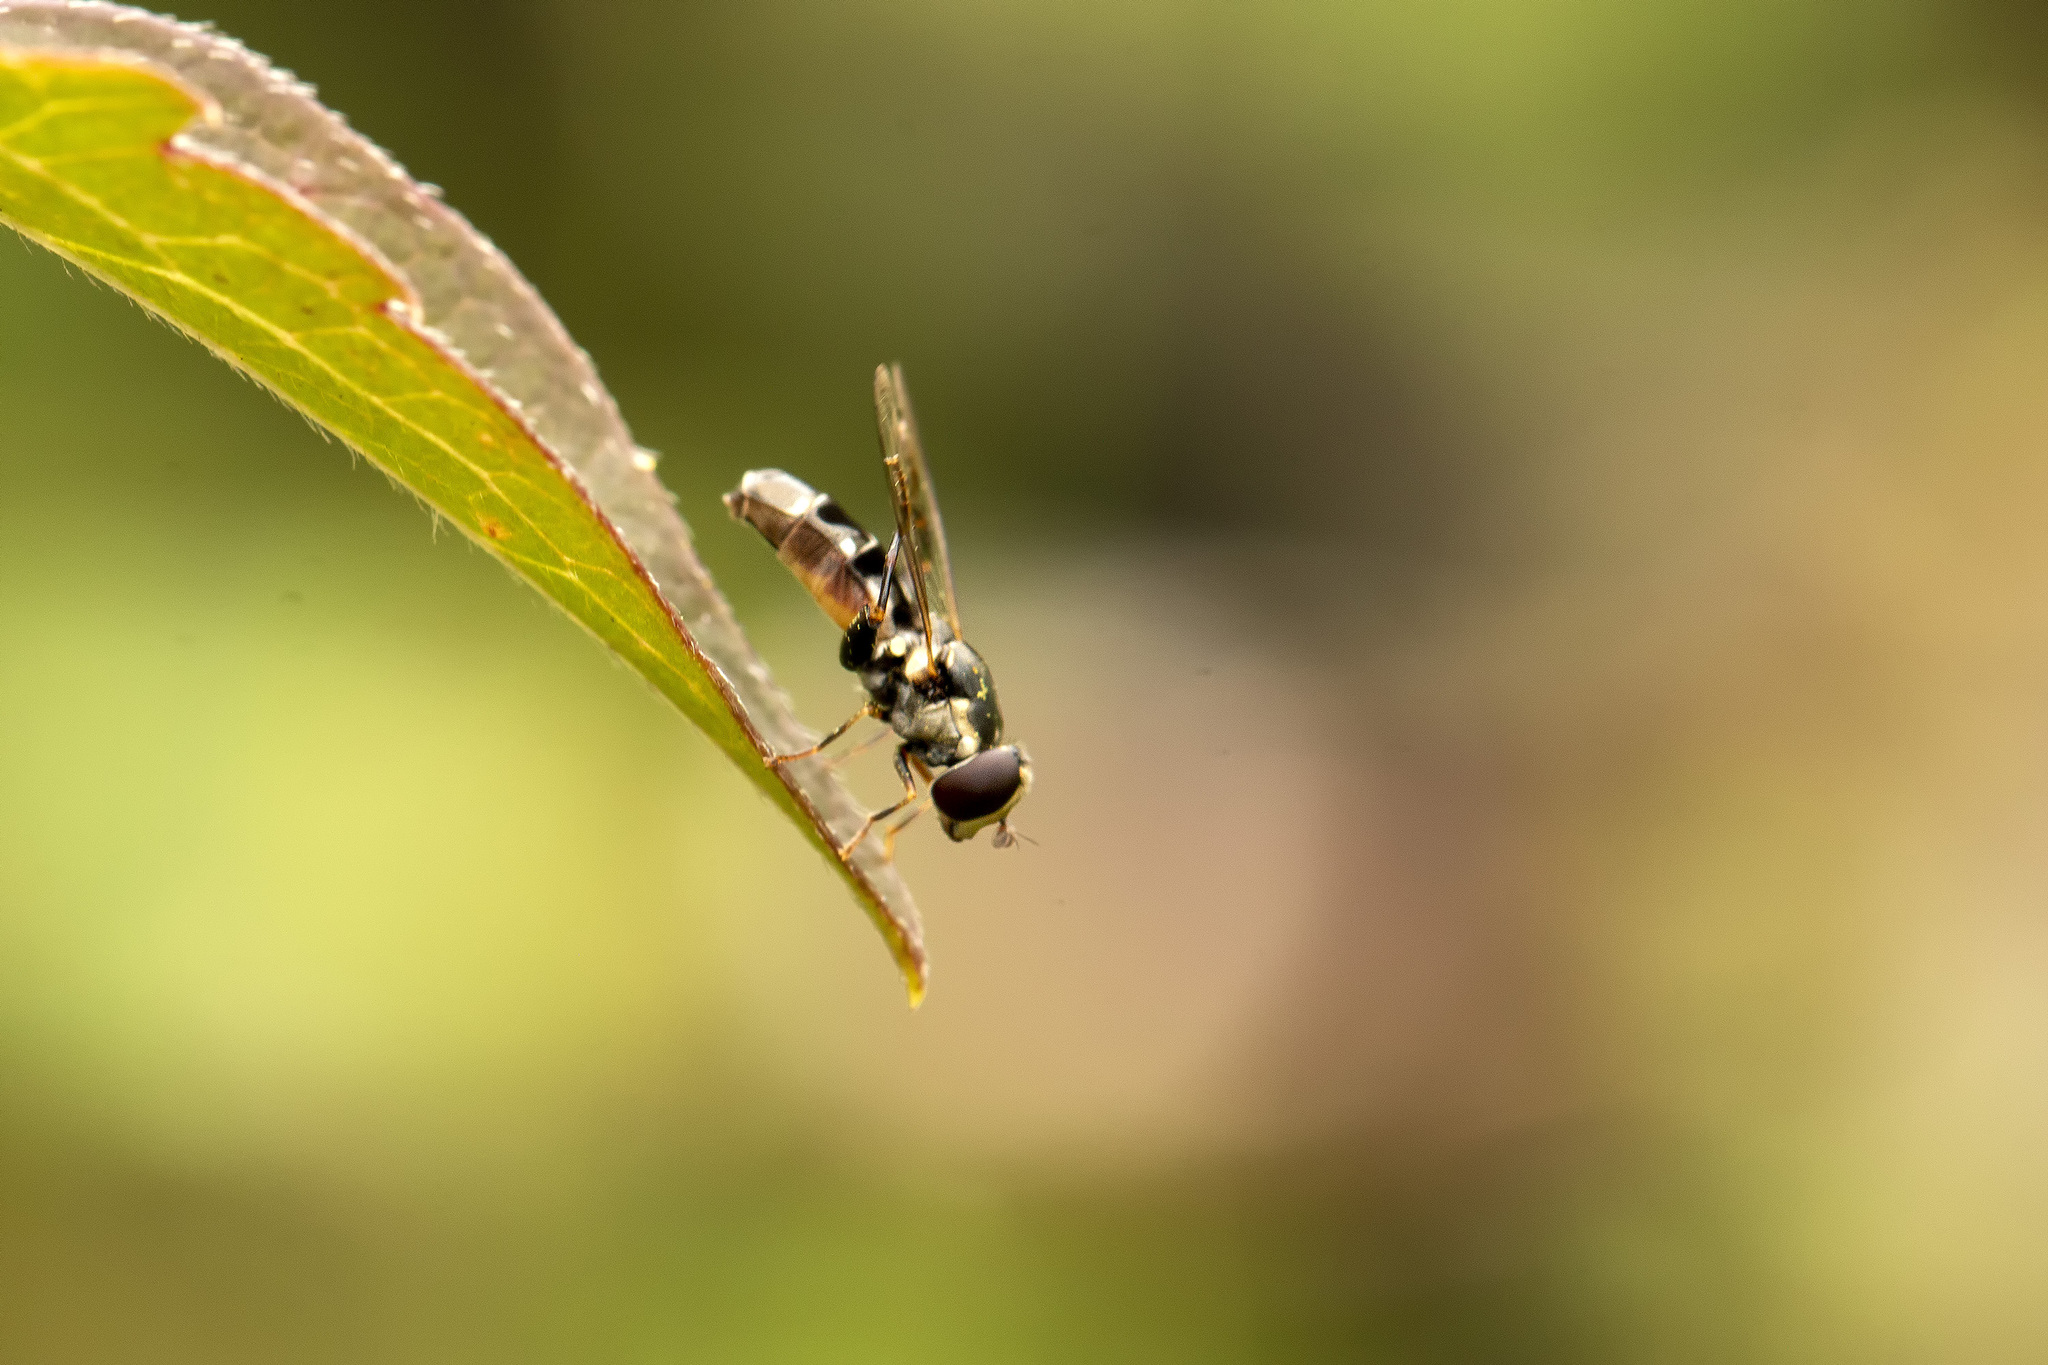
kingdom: Animalia
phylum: Arthropoda
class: Insecta
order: Diptera
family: Syrphidae
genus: Syritta
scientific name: Syritta pipiens
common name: Hover fly
